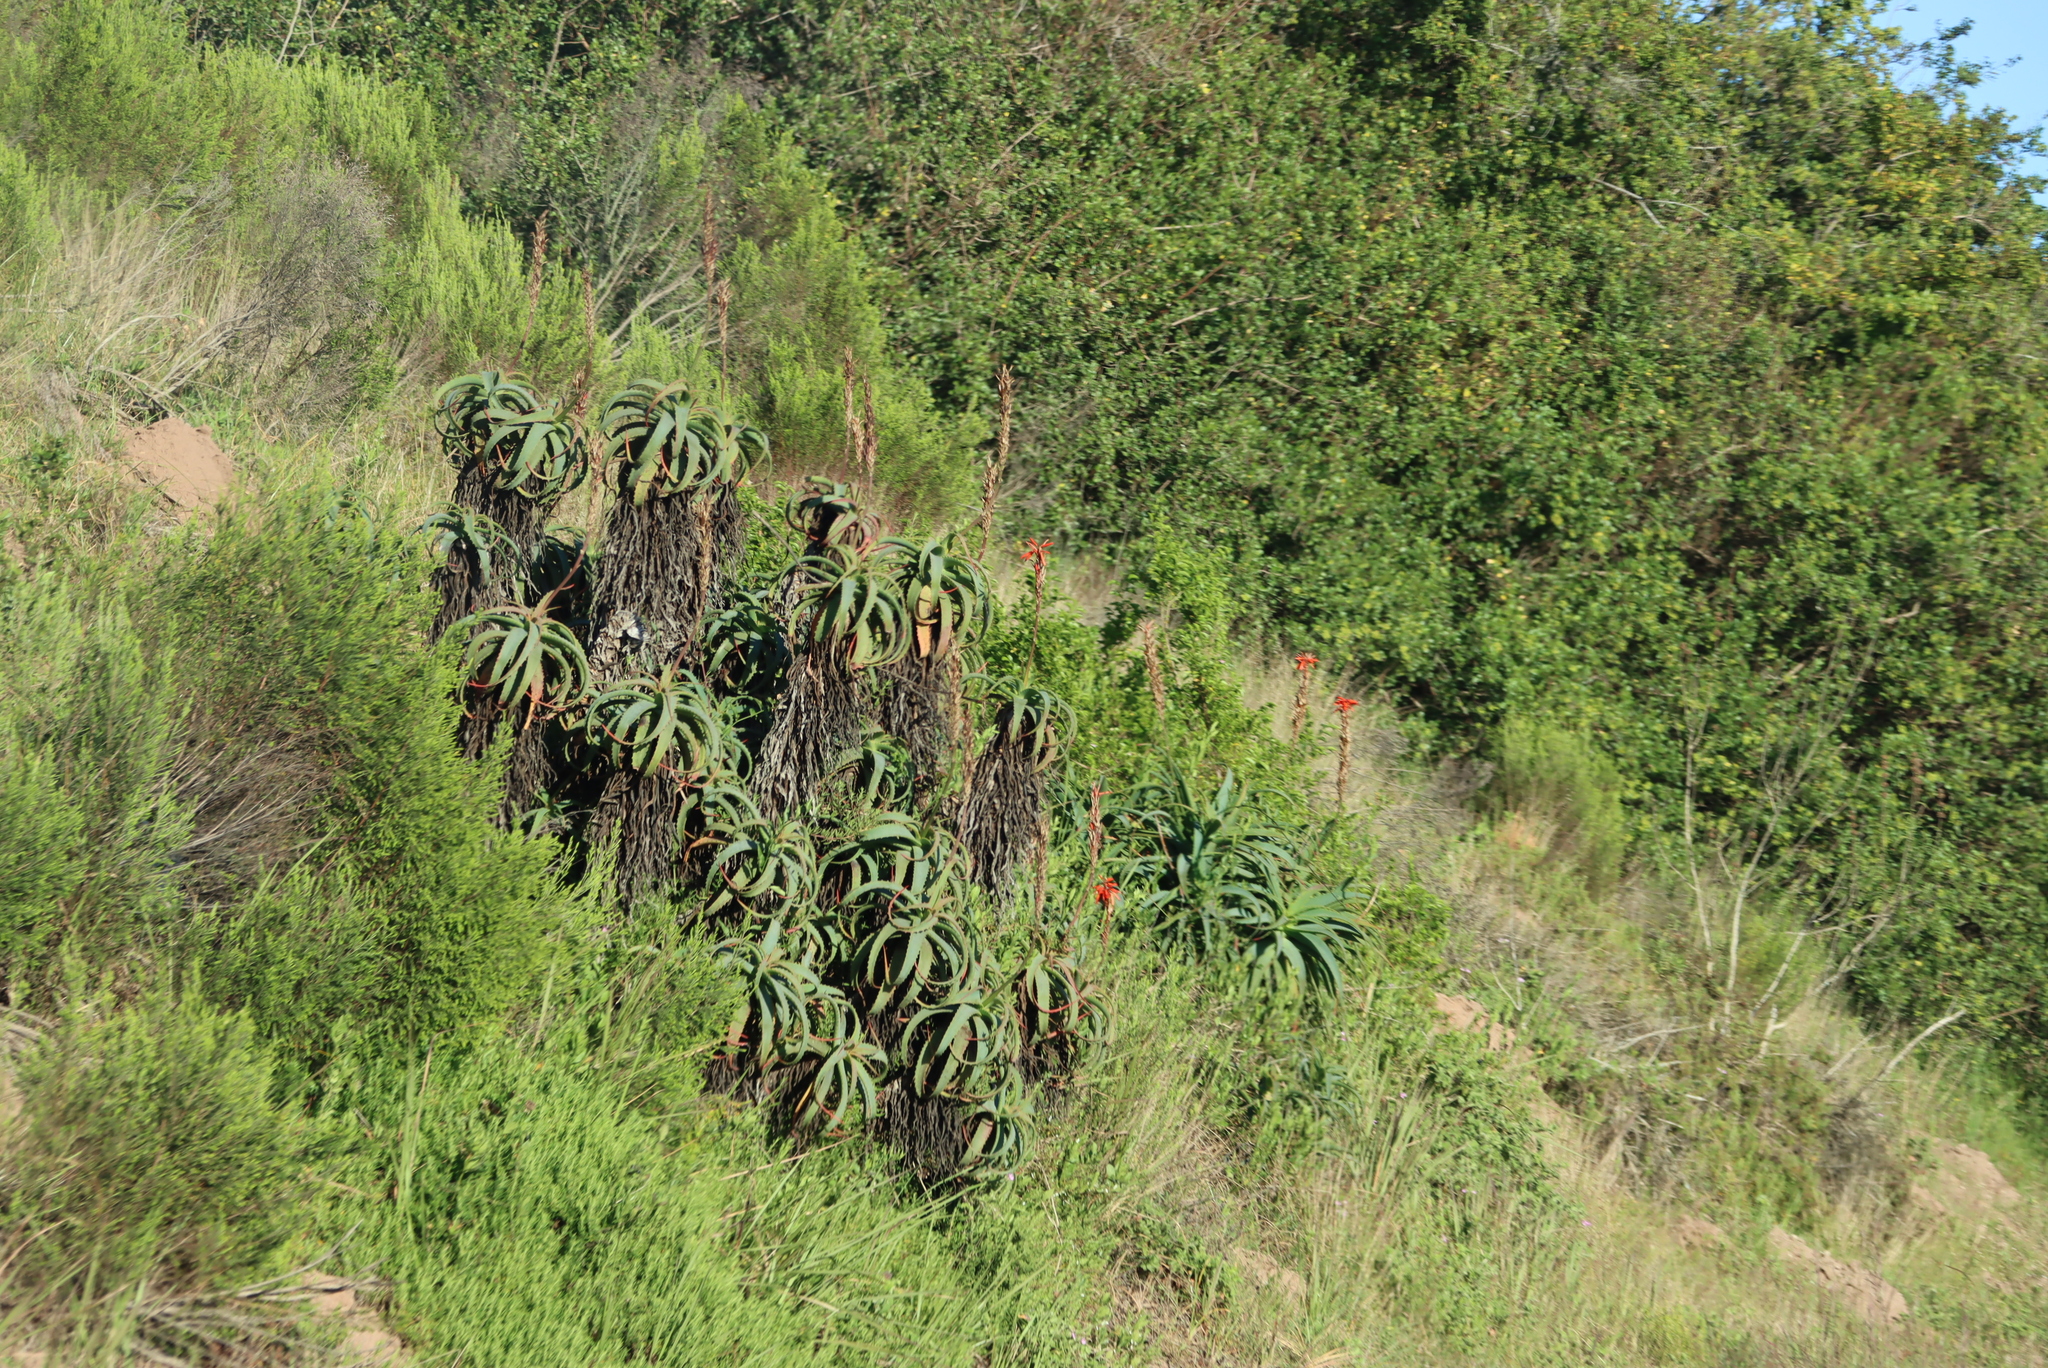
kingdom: Plantae
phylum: Tracheophyta
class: Liliopsida
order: Asparagales
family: Asphodelaceae
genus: Aloe
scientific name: Aloe arborescens
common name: Candelabra aloe
